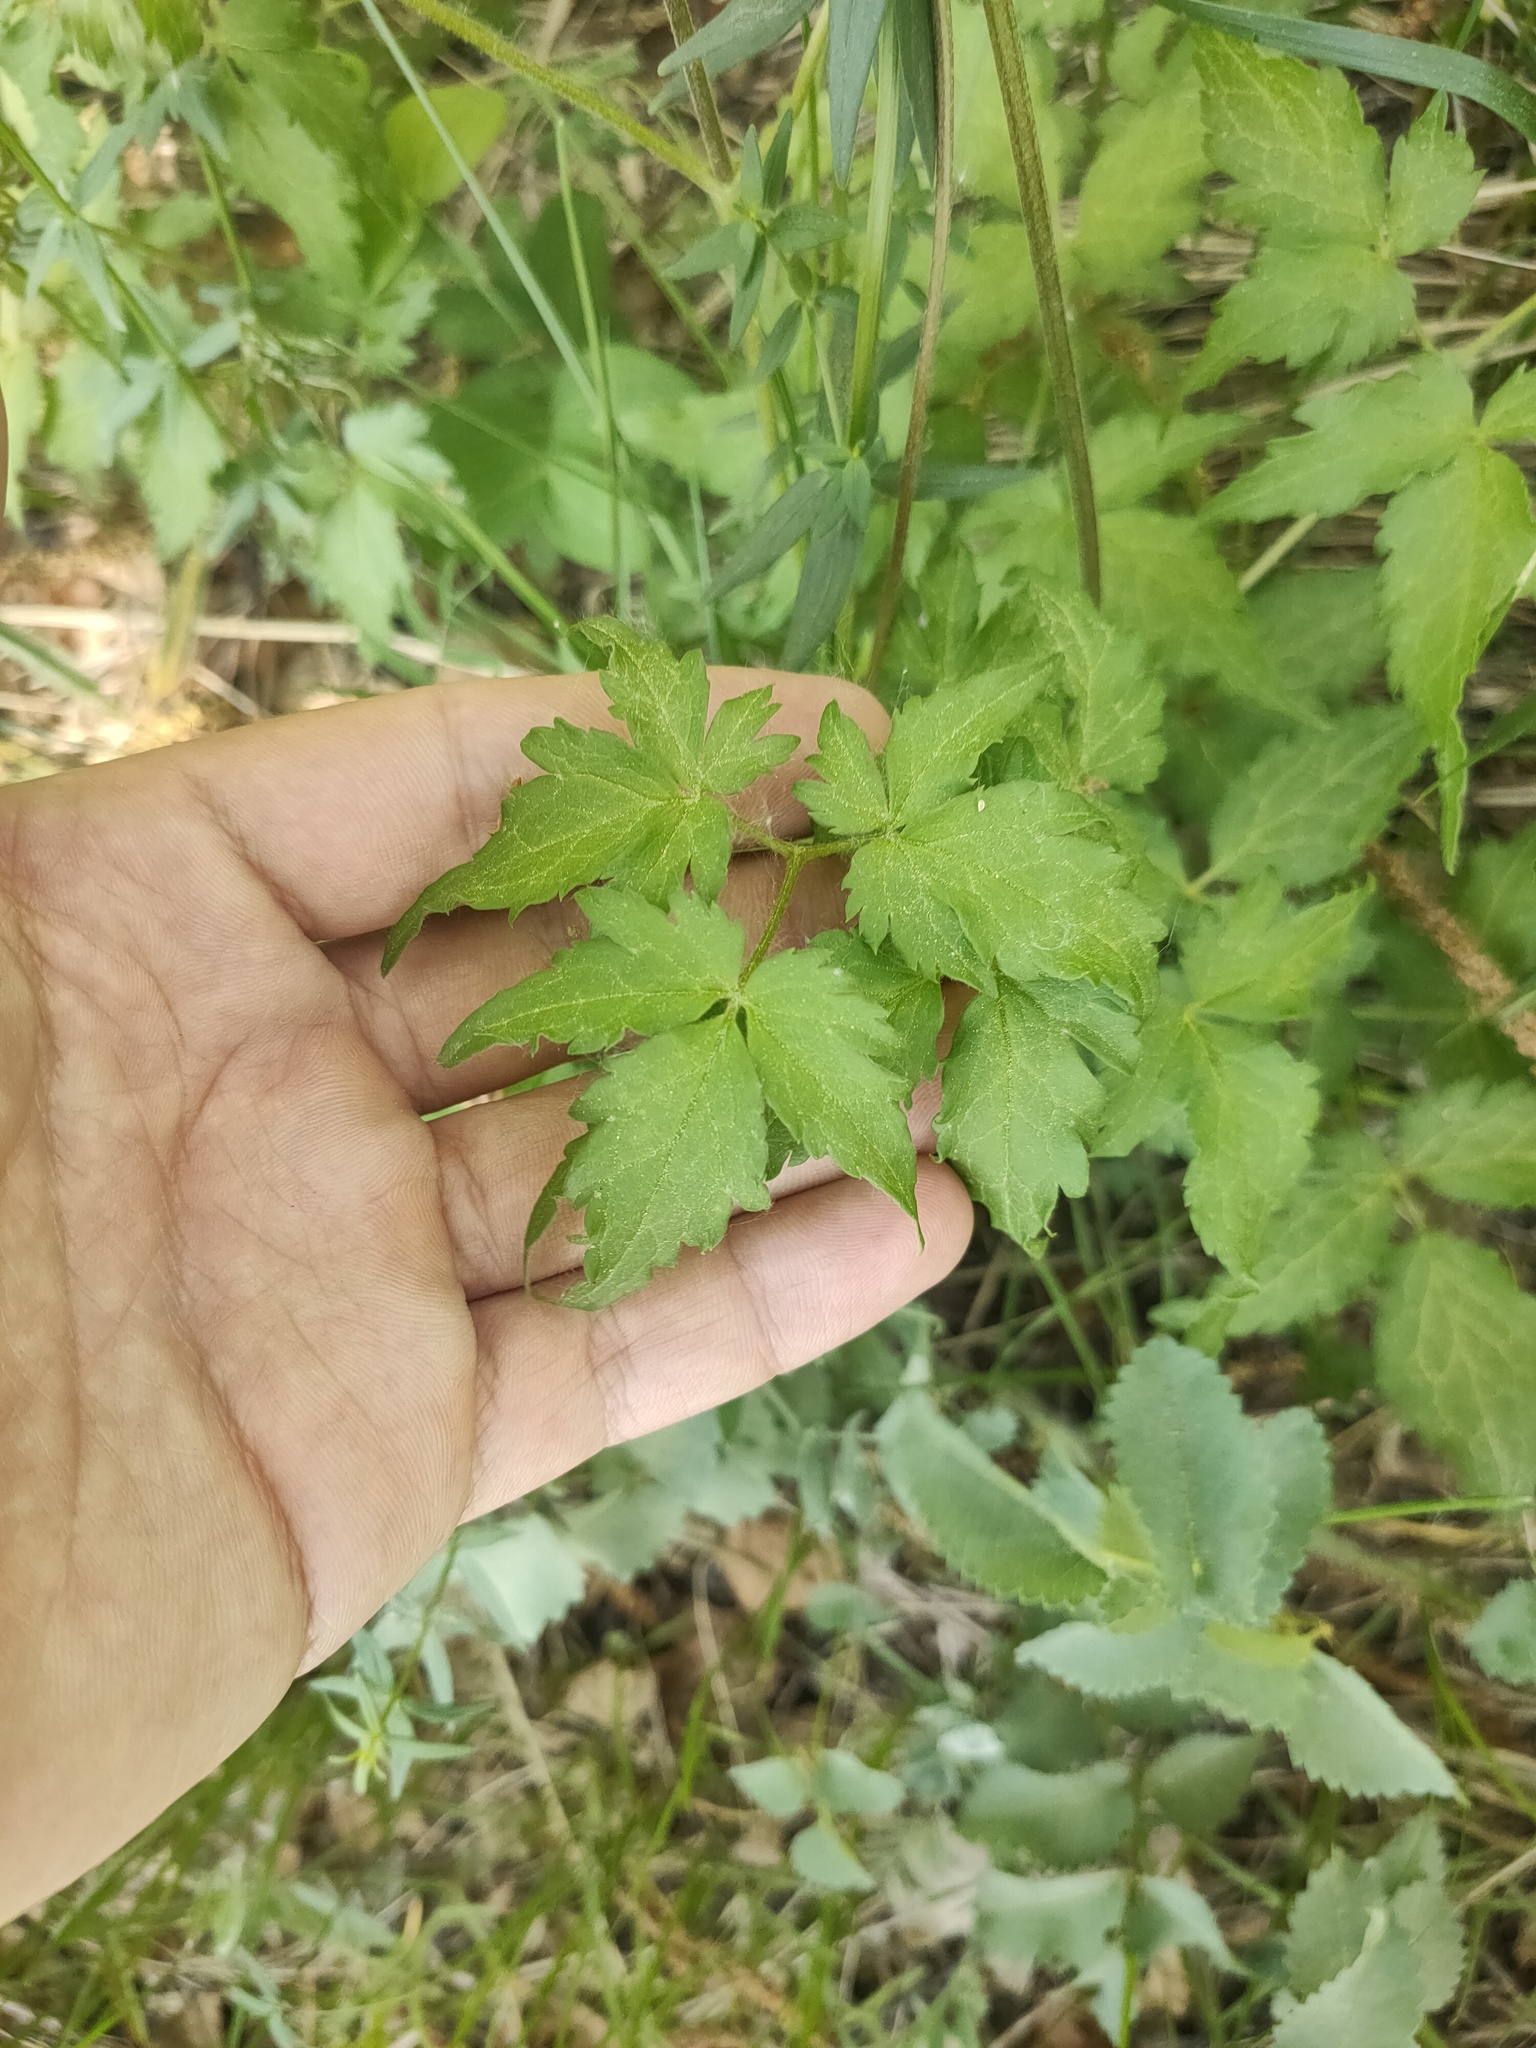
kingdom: Plantae
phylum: Tracheophyta
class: Magnoliopsida
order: Ranunculales
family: Ranunculaceae
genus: Clematis
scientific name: Clematis sibirica
